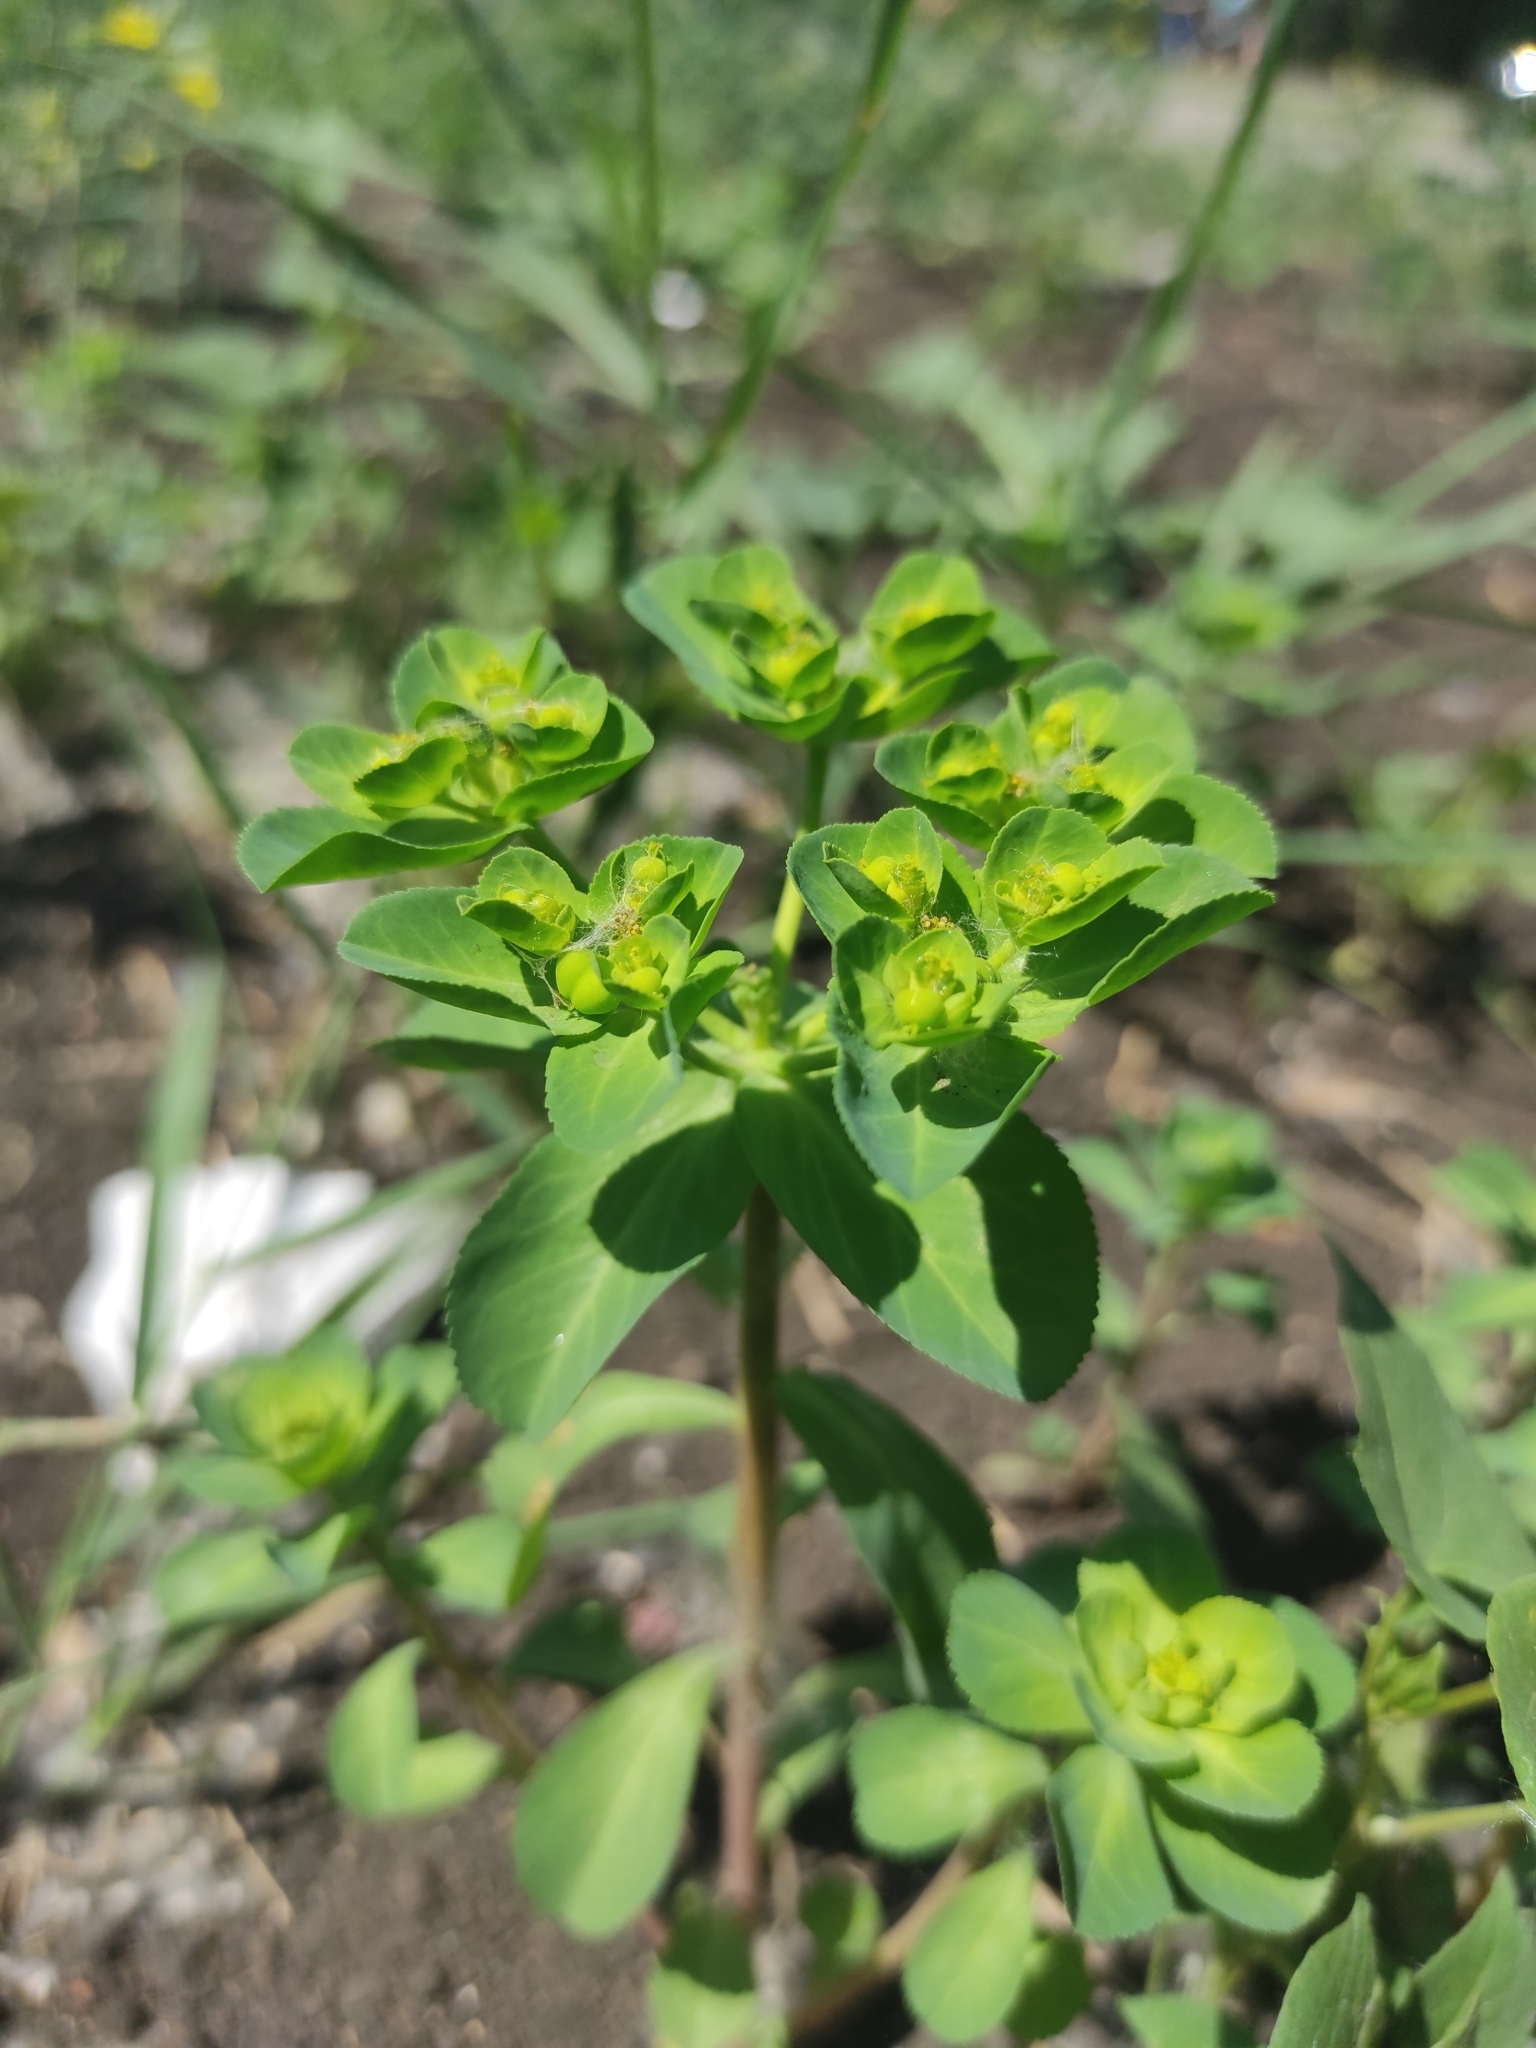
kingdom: Plantae
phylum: Tracheophyta
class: Magnoliopsida
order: Malpighiales
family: Euphorbiaceae
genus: Euphorbia
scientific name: Euphorbia helioscopia
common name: Sun spurge
